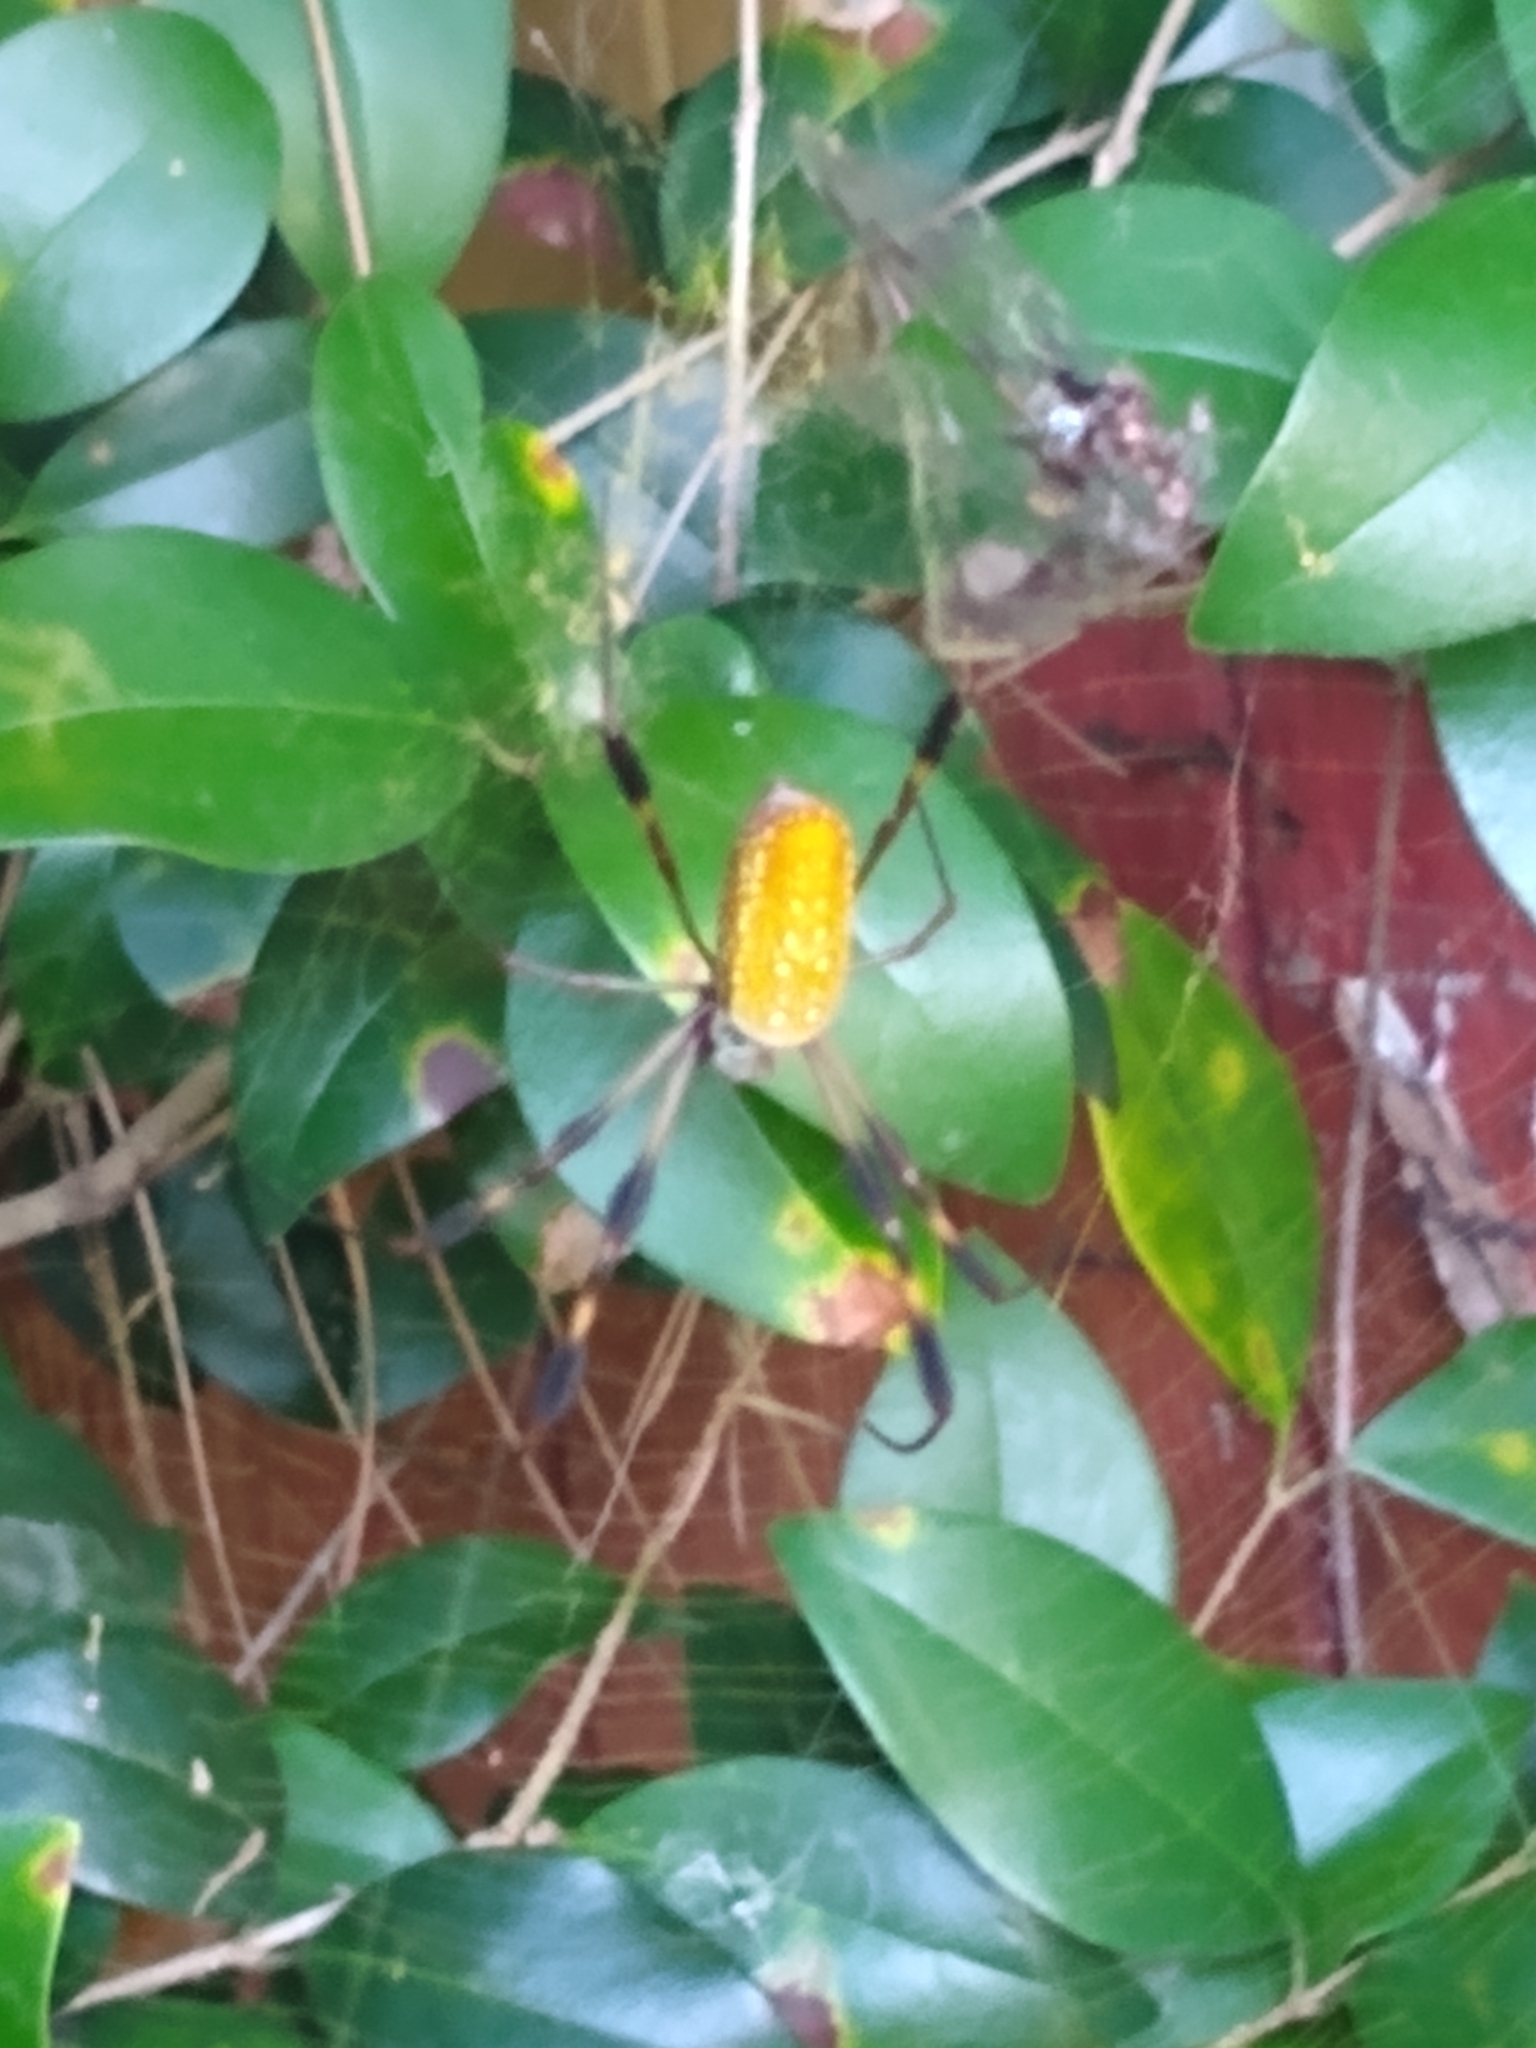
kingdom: Animalia
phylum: Arthropoda
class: Arachnida
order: Araneae
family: Araneidae
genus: Trichonephila
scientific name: Trichonephila clavipes
